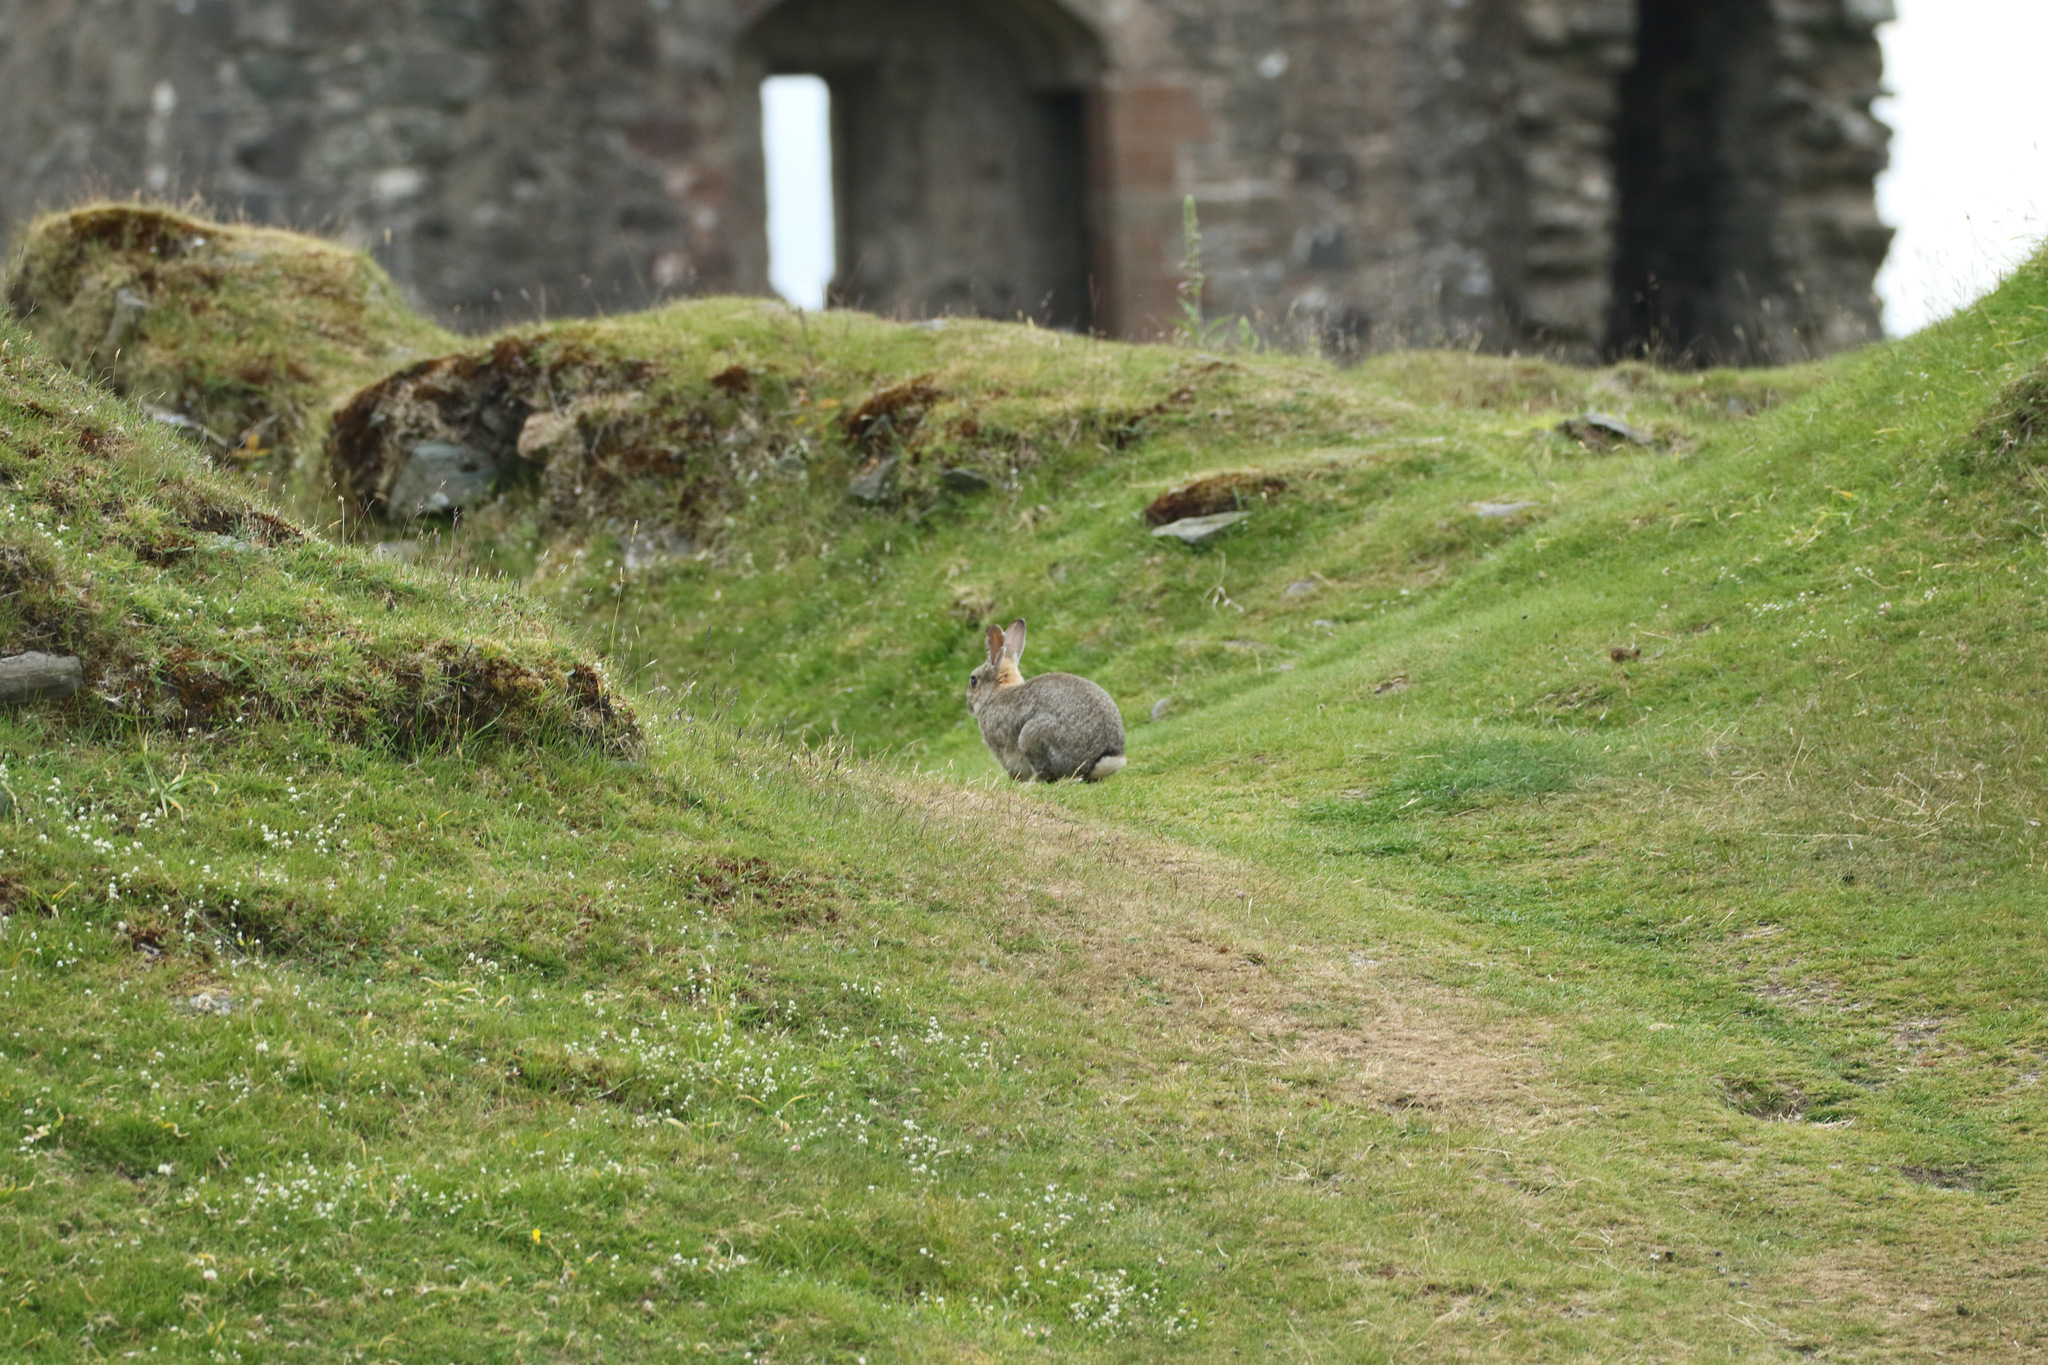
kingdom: Animalia
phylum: Chordata
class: Mammalia
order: Lagomorpha
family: Leporidae
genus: Oryctolagus
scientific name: Oryctolagus cuniculus
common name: European rabbit
